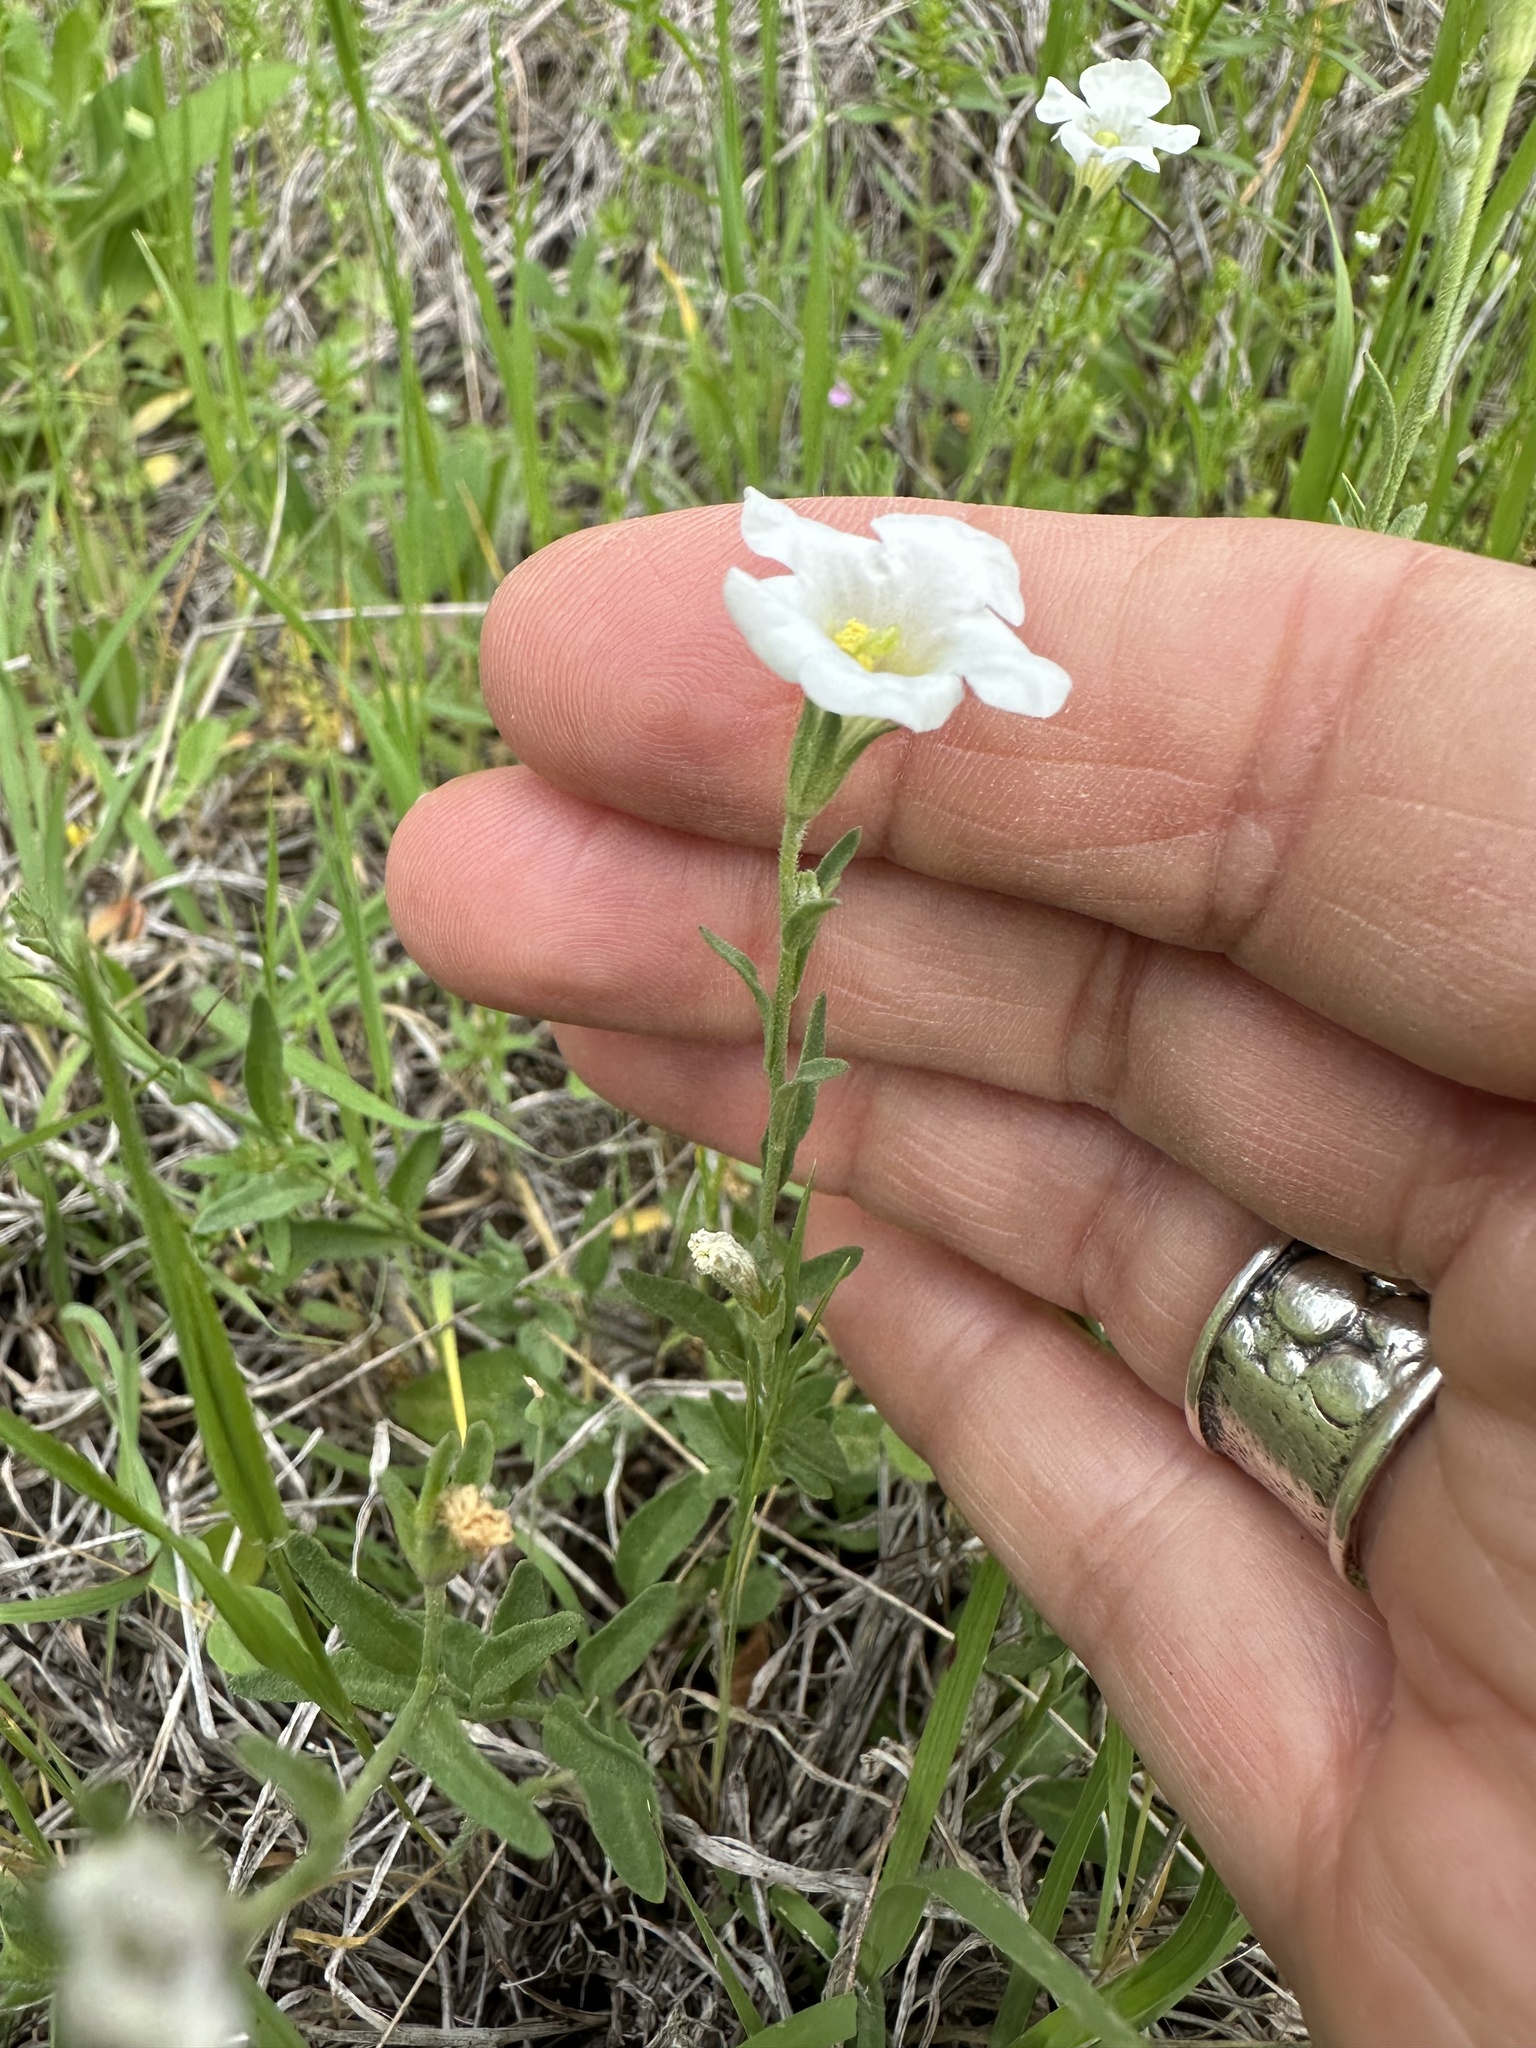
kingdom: Plantae
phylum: Tracheophyta
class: Magnoliopsida
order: Solanales
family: Solanaceae
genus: Salpiglossis
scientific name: Salpiglossis erecta
